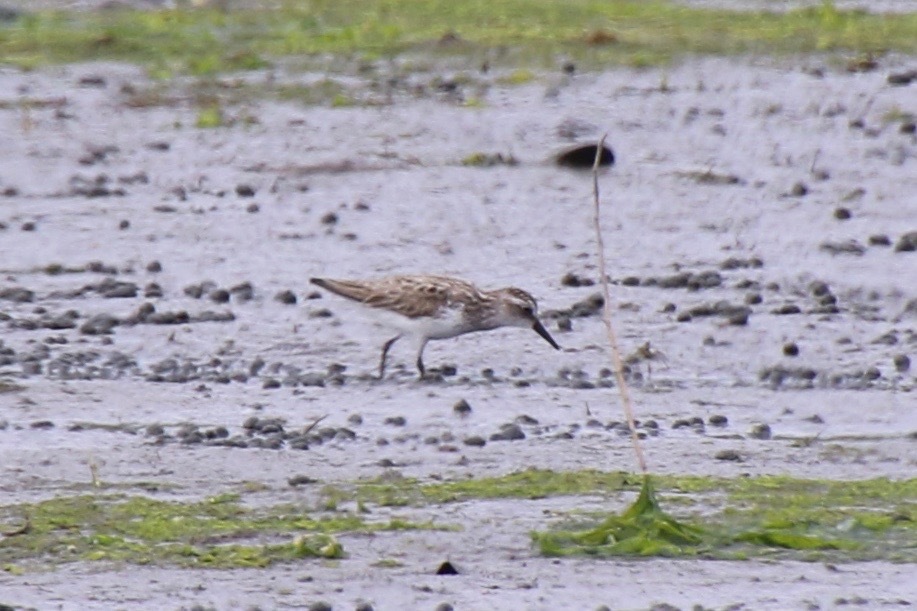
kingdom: Animalia
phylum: Chordata
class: Aves
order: Charadriiformes
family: Scolopacidae
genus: Calidris
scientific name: Calidris pusilla
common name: Semipalmated sandpiper
